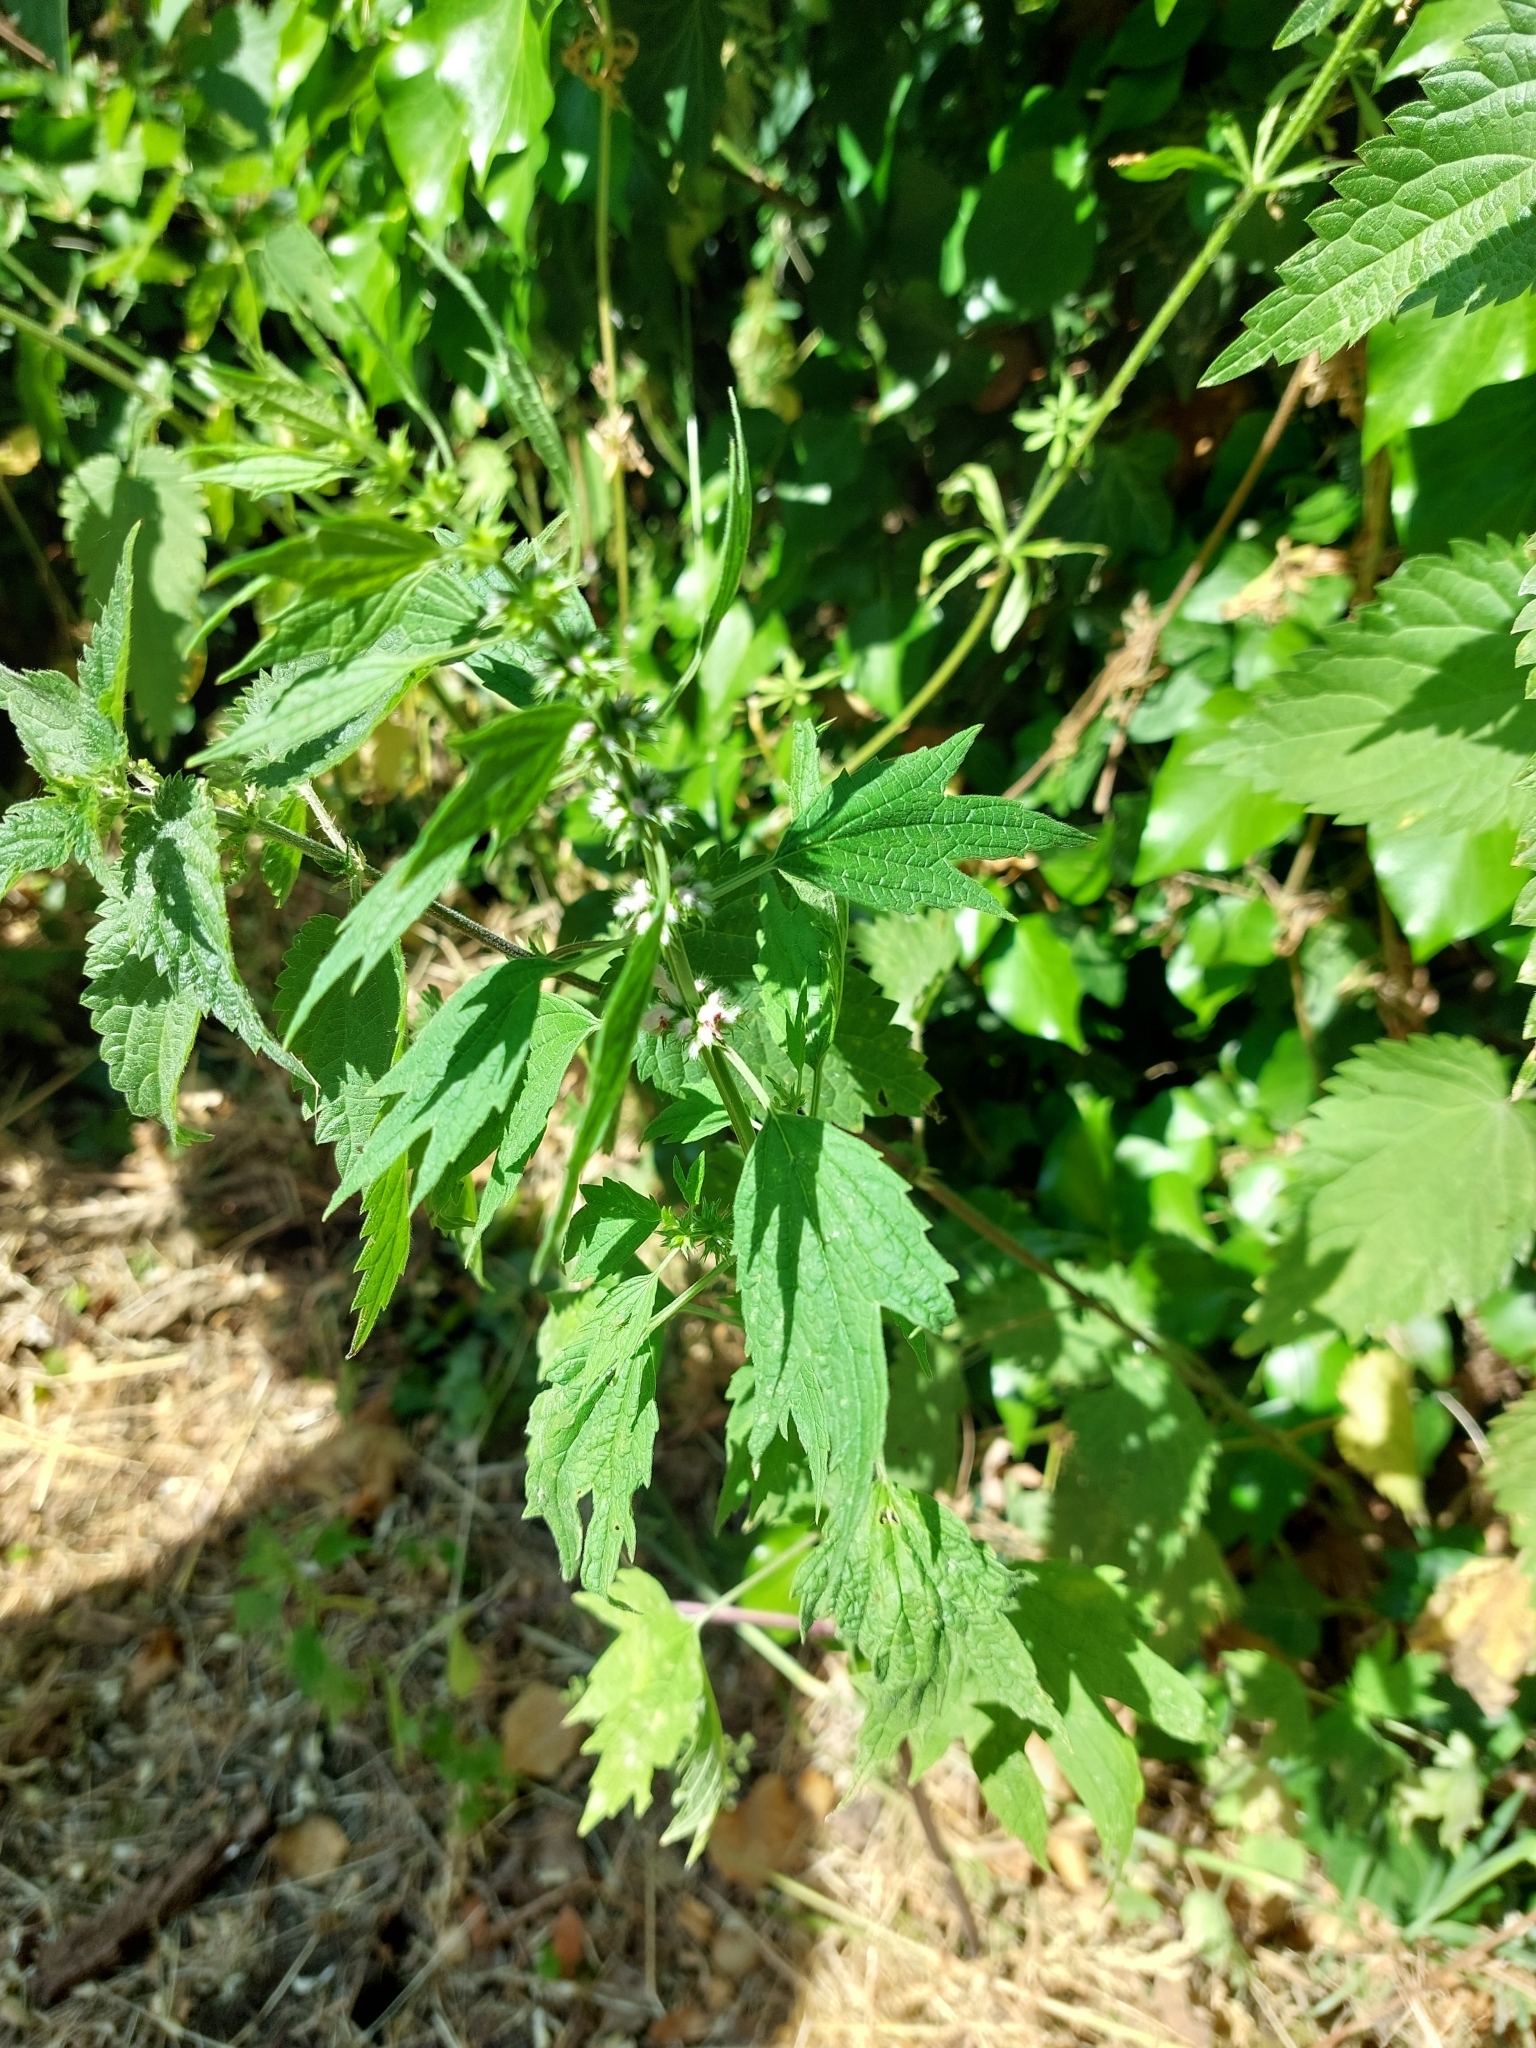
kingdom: Plantae
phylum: Tracheophyta
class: Magnoliopsida
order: Lamiales
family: Lamiaceae
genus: Leonurus
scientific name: Leonurus cardiaca
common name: Motherwort
